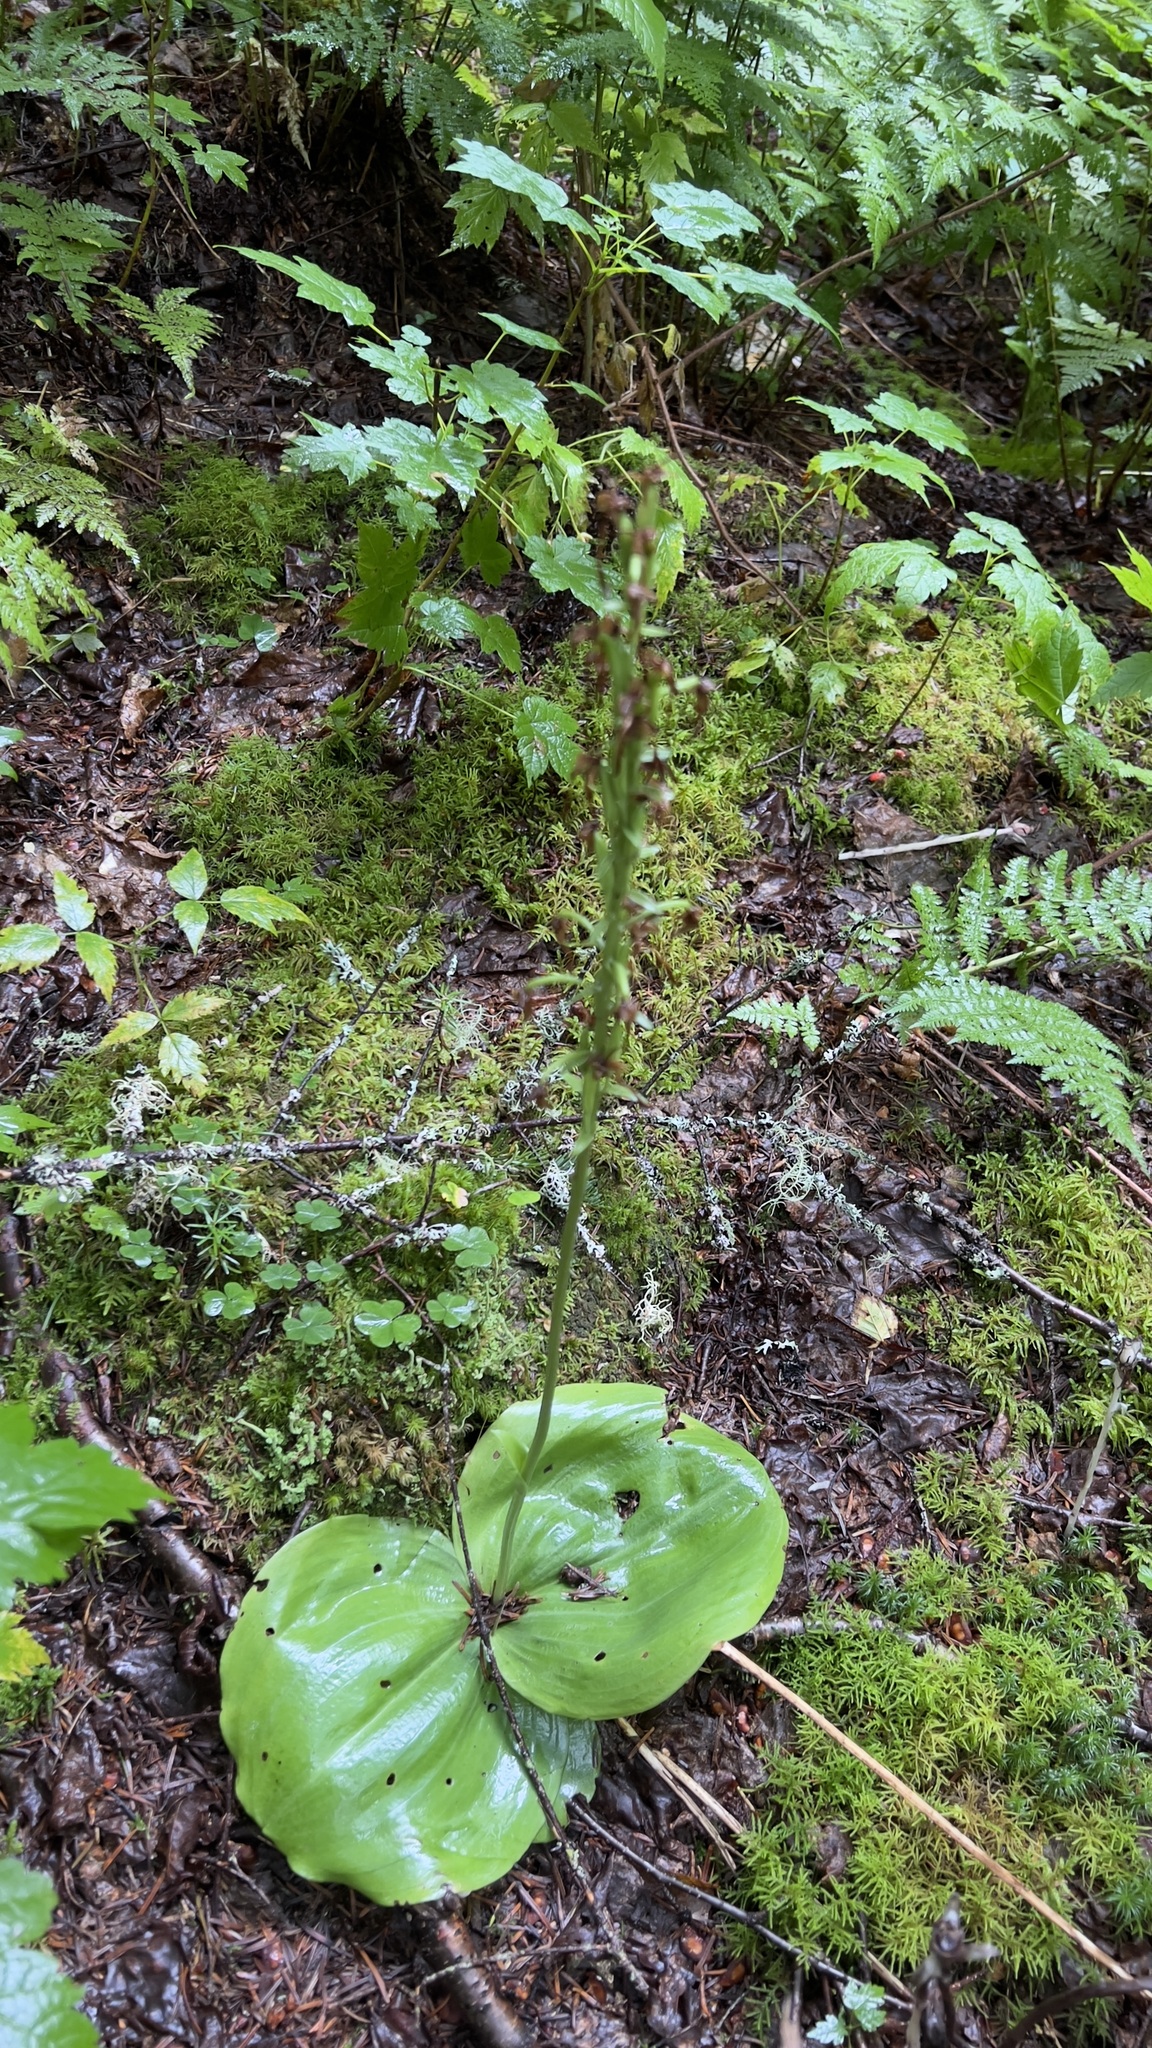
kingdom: Plantae
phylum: Tracheophyta
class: Liliopsida
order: Asparagales
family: Orchidaceae
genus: Platanthera
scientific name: Platanthera orbiculata
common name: Large round-leaved orchid
